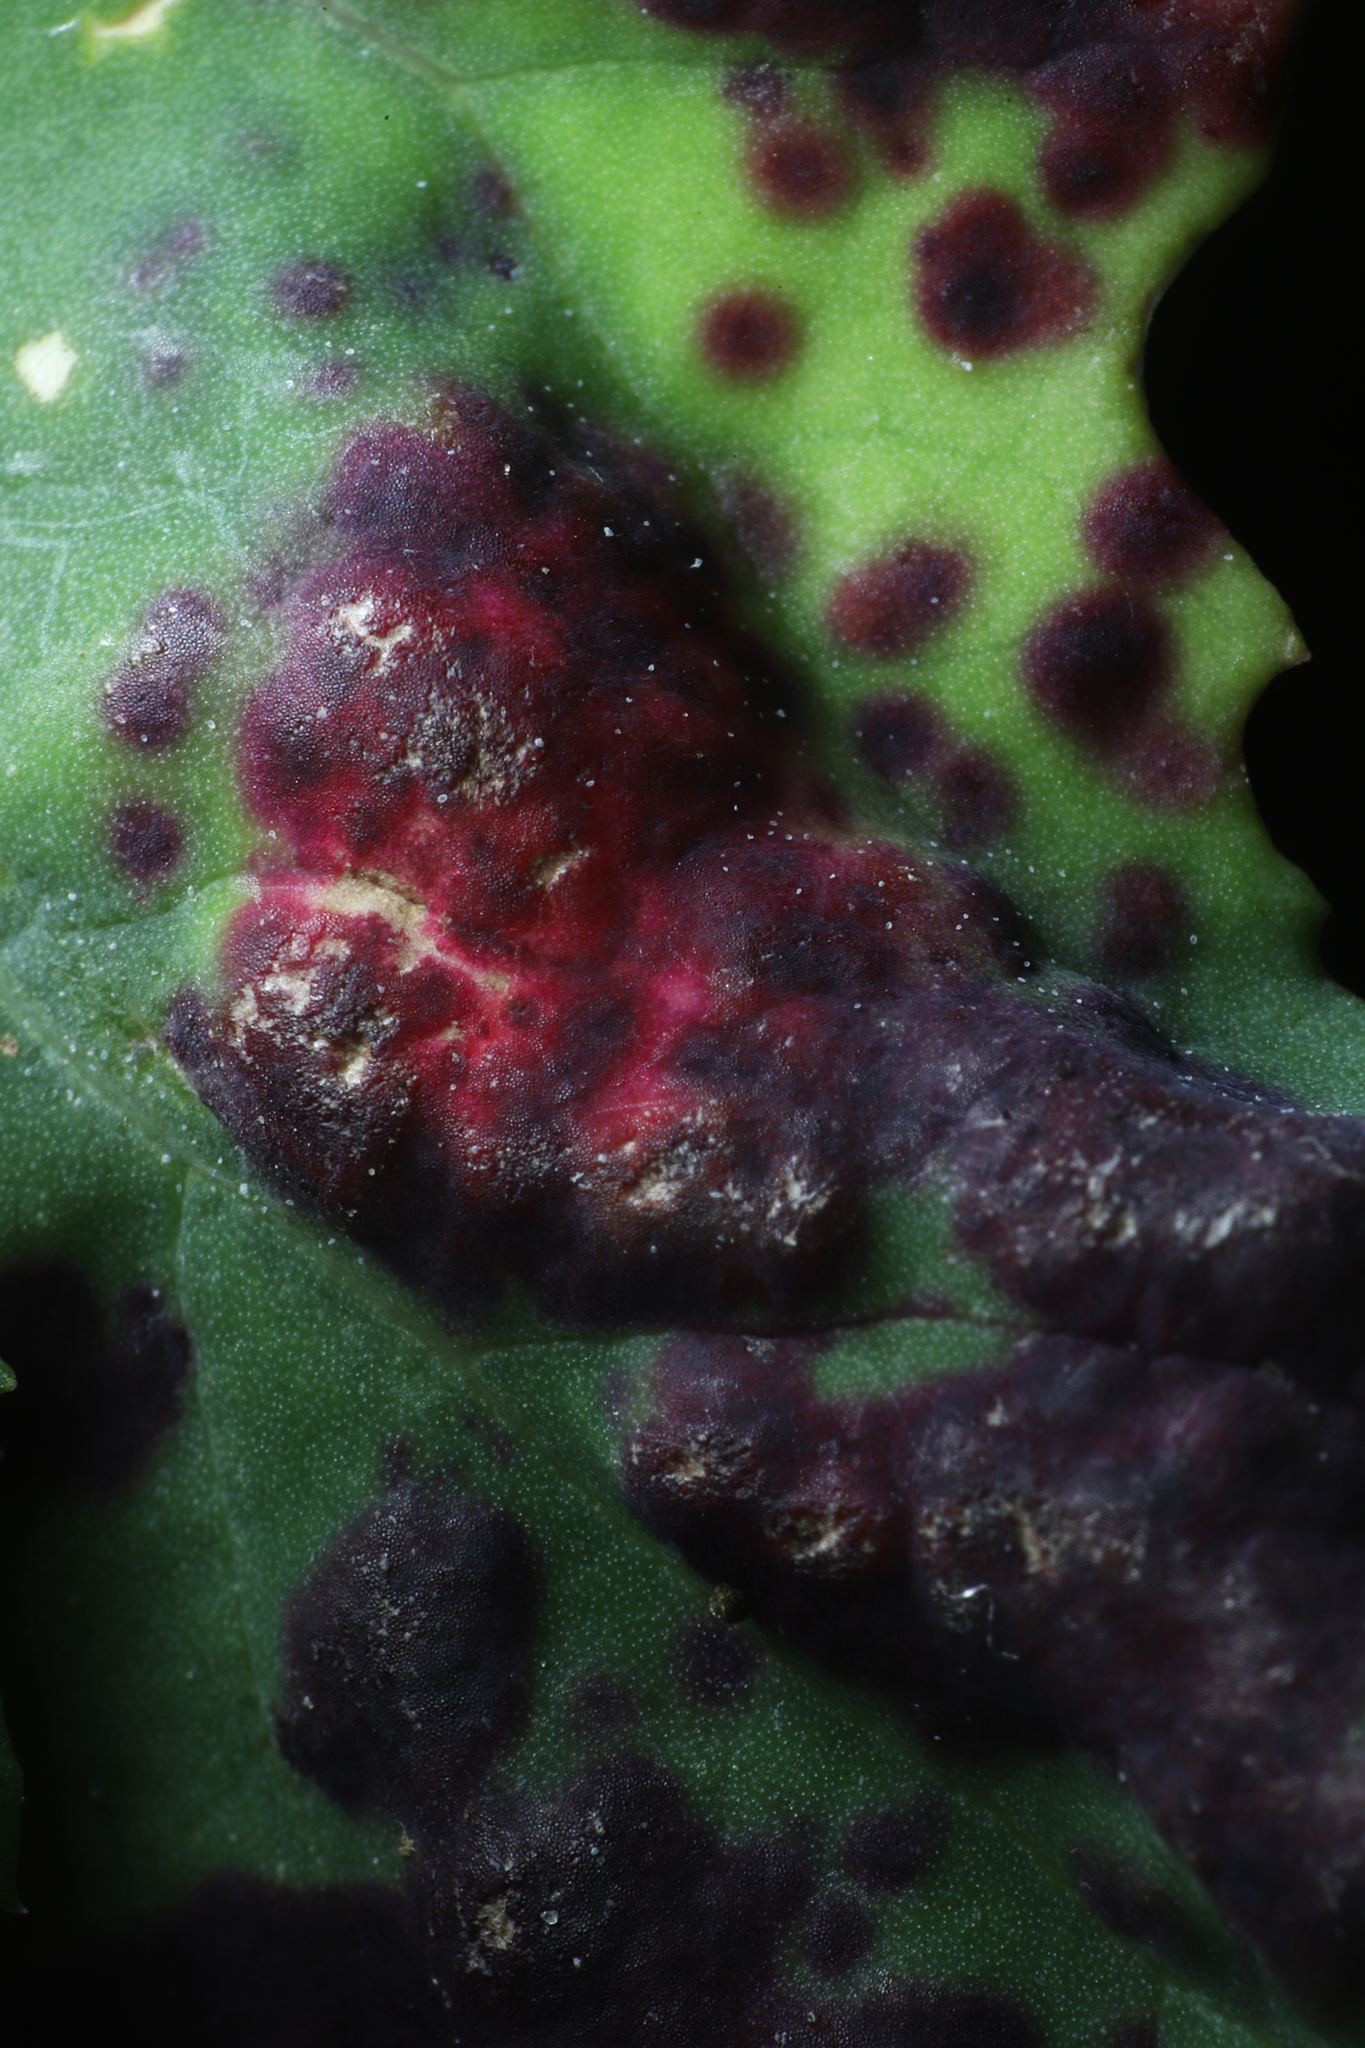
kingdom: Animalia
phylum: Arthropoda
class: Insecta
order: Hemiptera
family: Cicadellidae
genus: Norvellina
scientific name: Norvellina chenopodii
